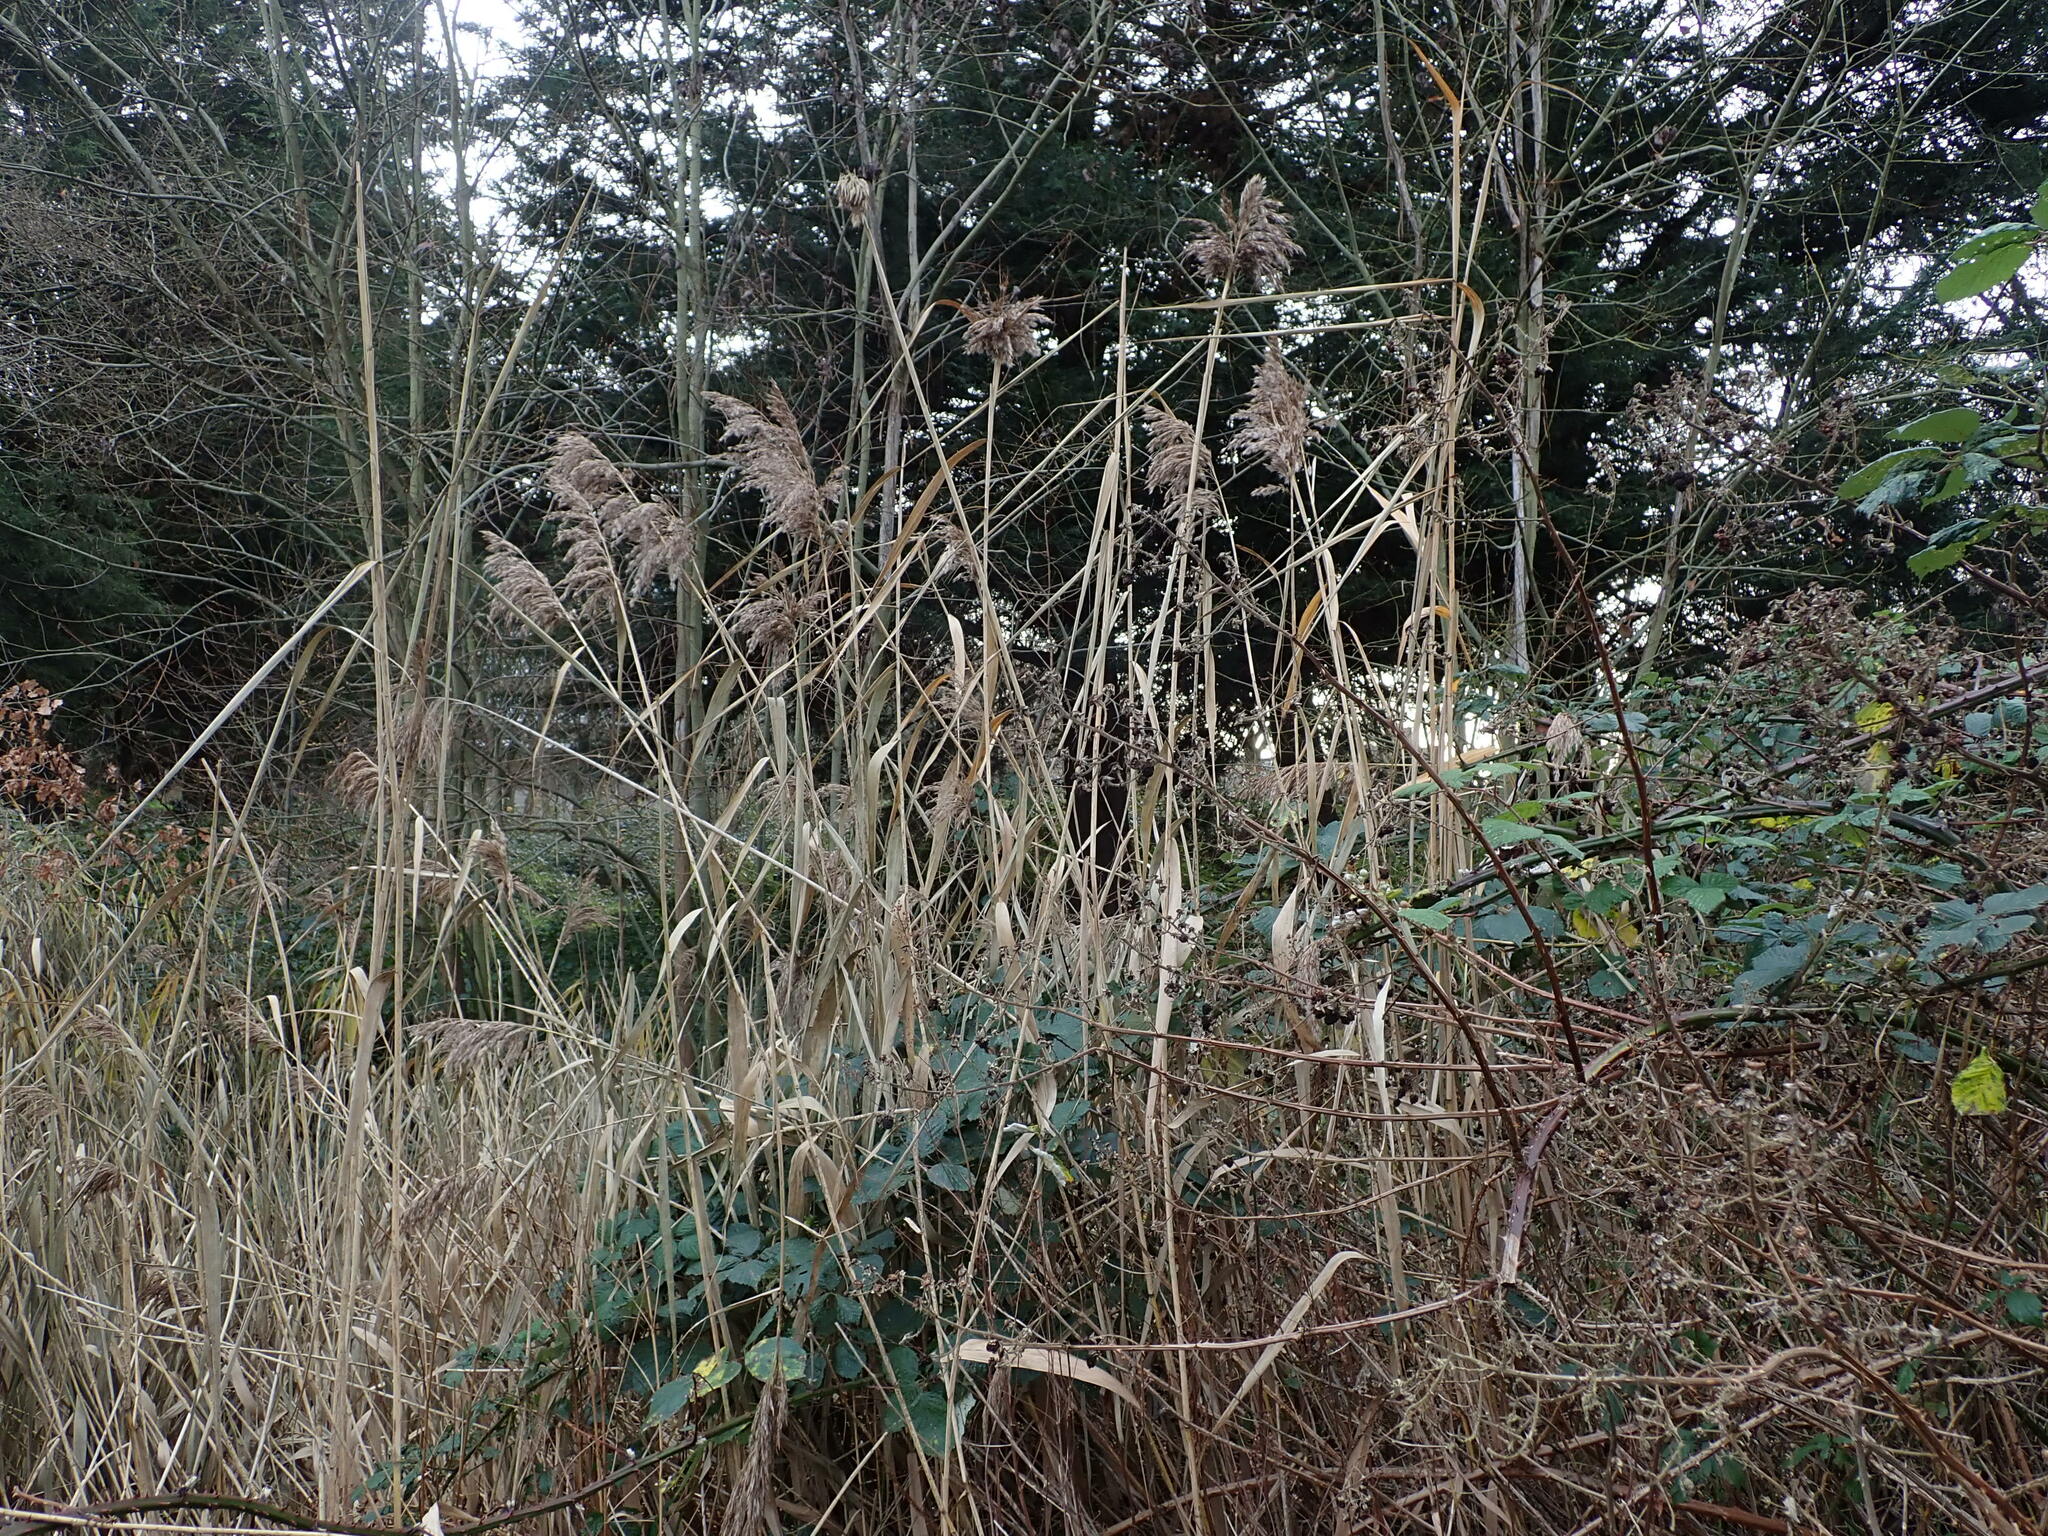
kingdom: Plantae
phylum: Tracheophyta
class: Liliopsida
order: Poales
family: Poaceae
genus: Phragmites
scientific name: Phragmites australis
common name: Common reed
